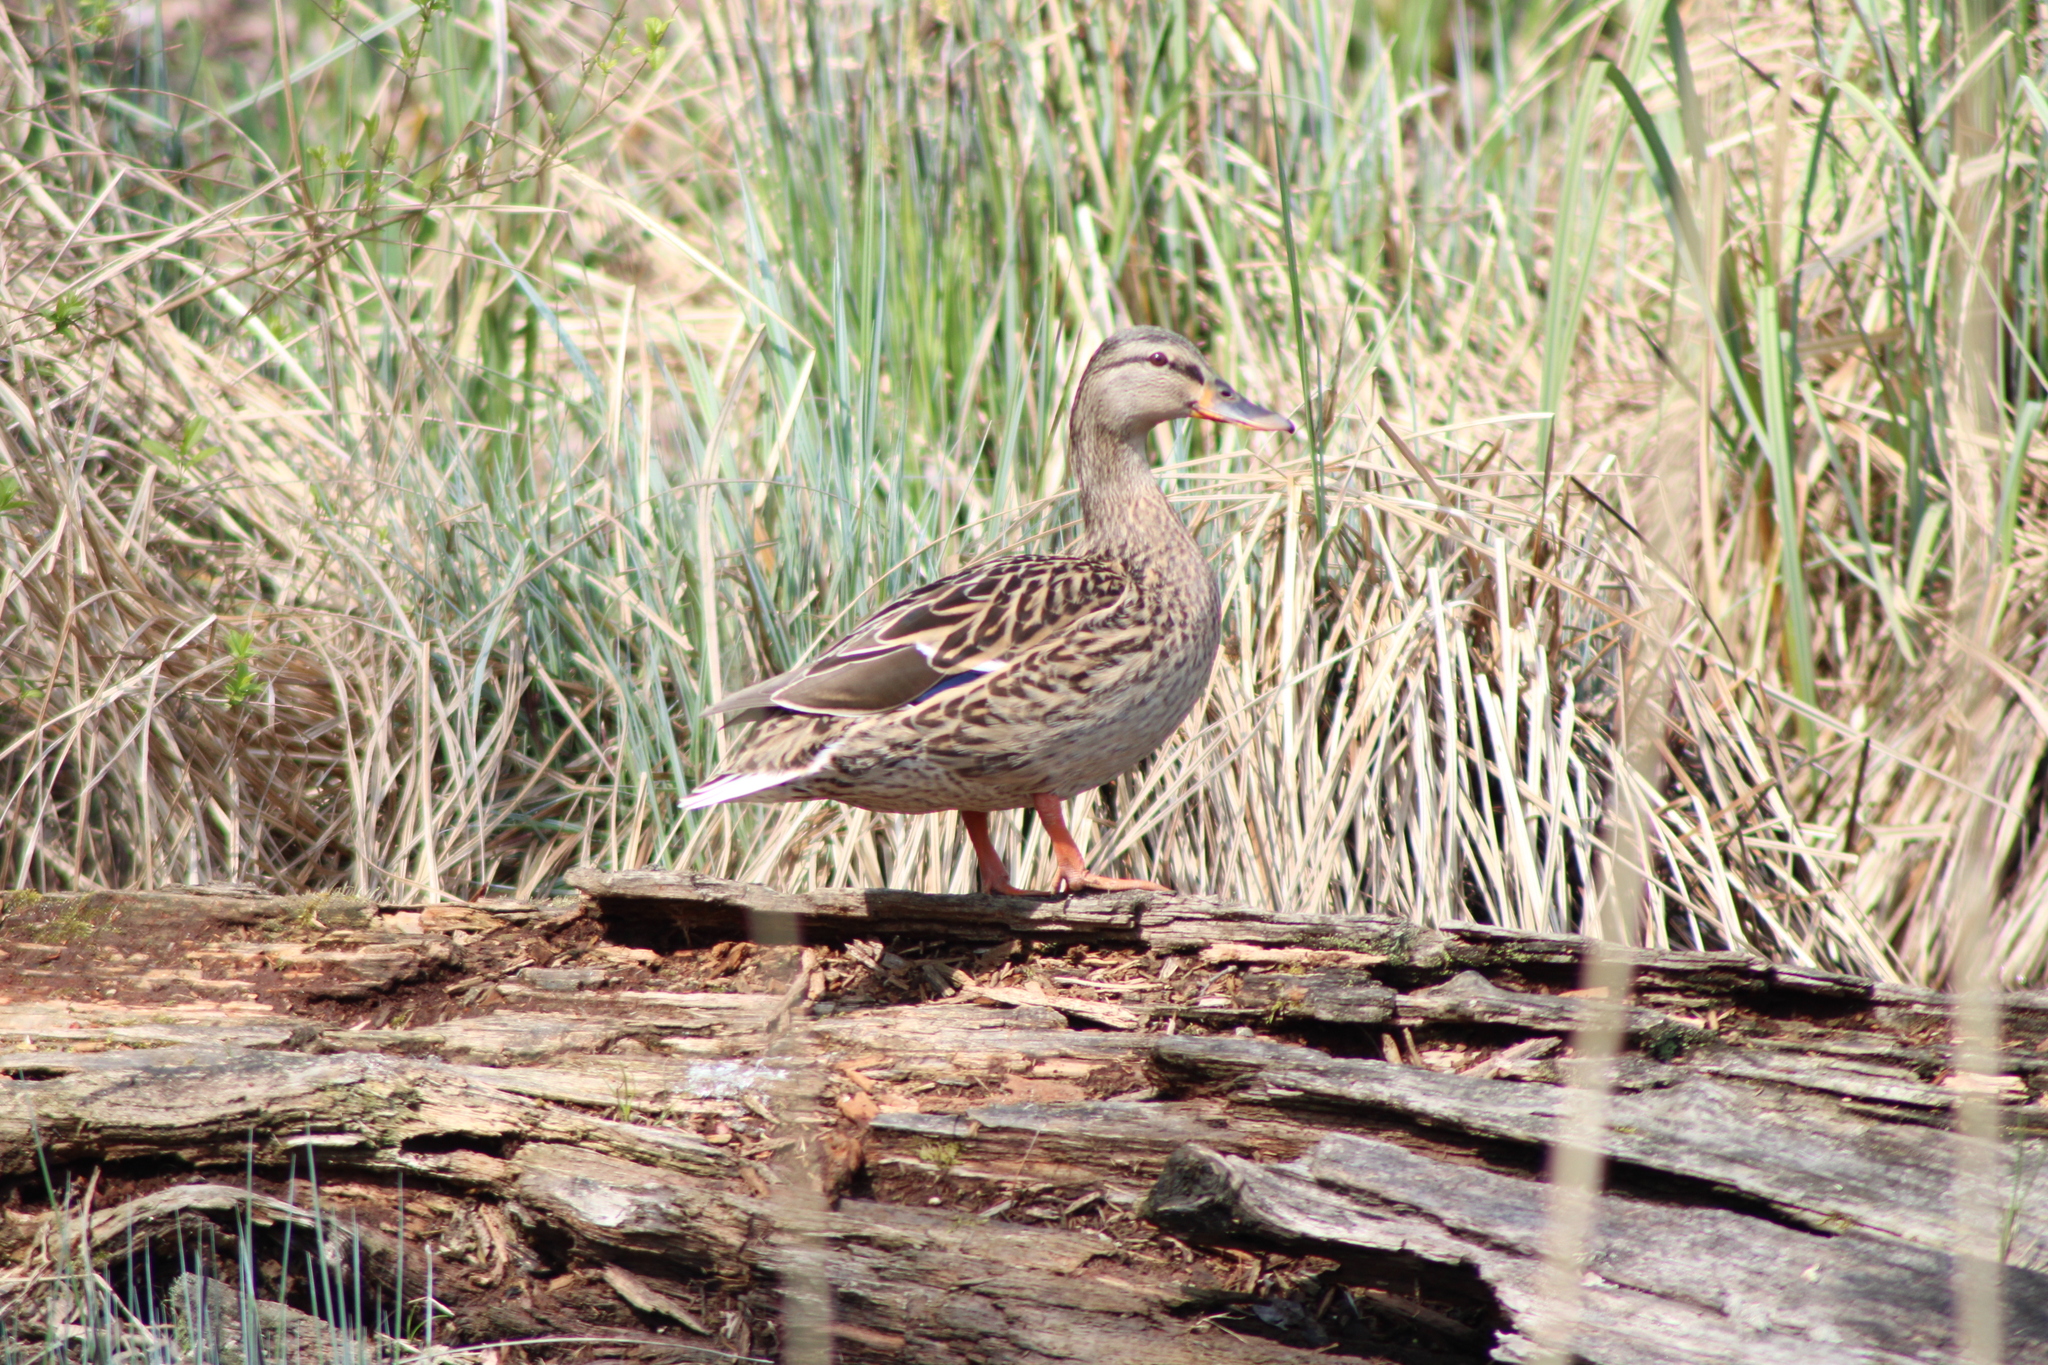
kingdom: Animalia
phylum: Chordata
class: Aves
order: Anseriformes
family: Anatidae
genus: Anas
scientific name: Anas platyrhynchos
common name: Mallard
